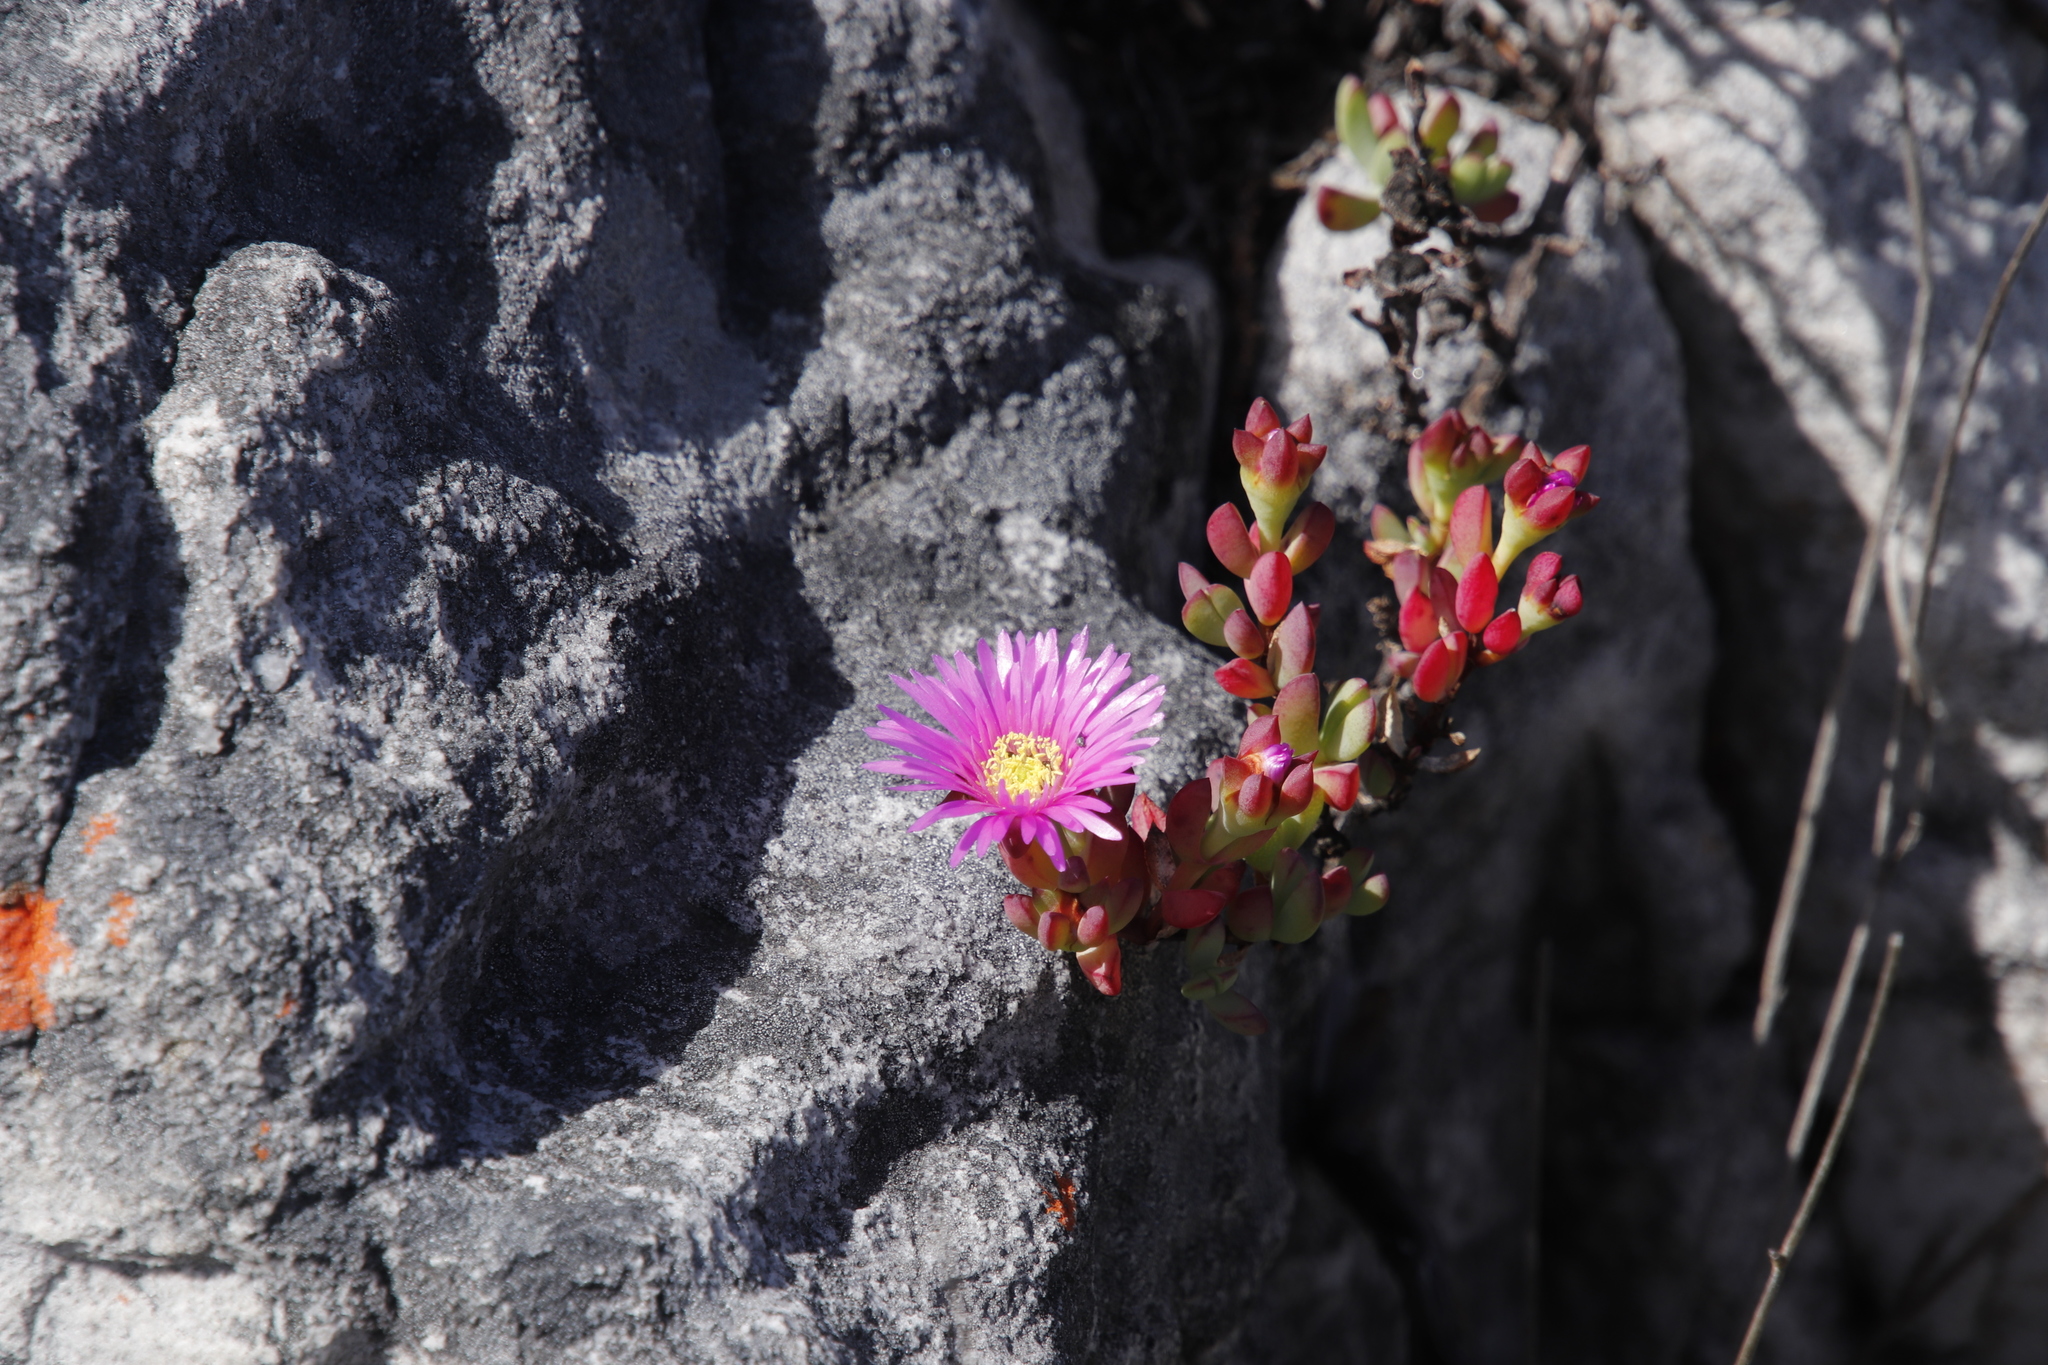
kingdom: Plantae
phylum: Tracheophyta
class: Magnoliopsida
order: Caryophyllales
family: Aizoaceae
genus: Oscularia
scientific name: Oscularia falciformis
